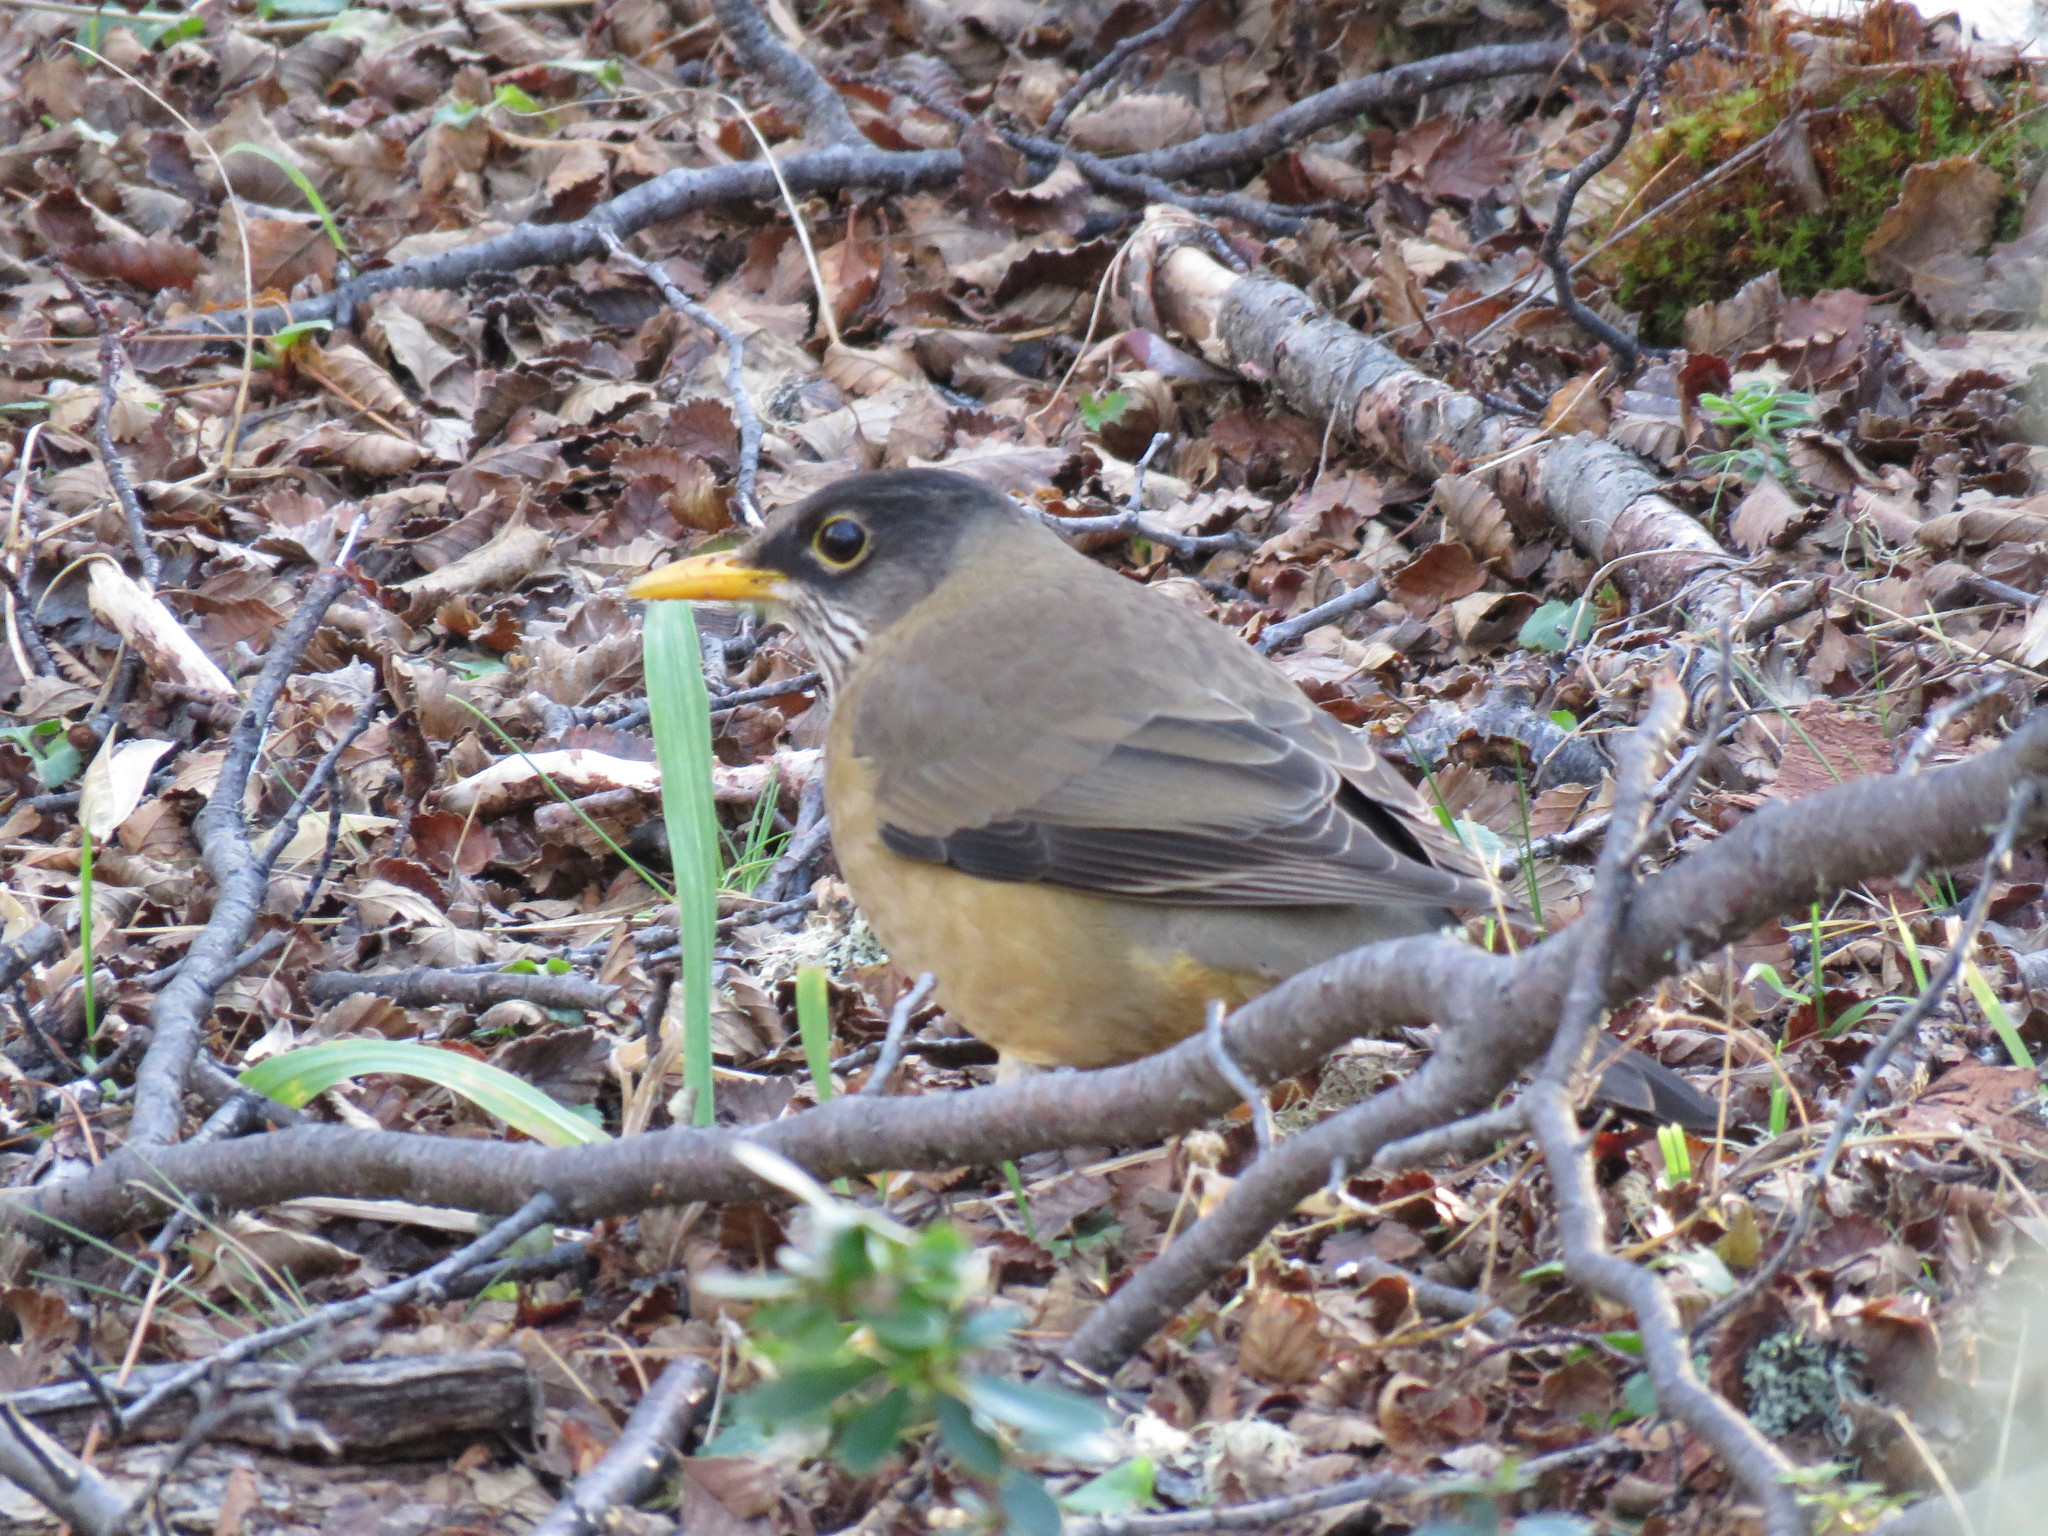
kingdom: Animalia
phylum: Chordata
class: Aves
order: Passeriformes
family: Turdidae
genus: Turdus
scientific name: Turdus falcklandii
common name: Austral thrush
